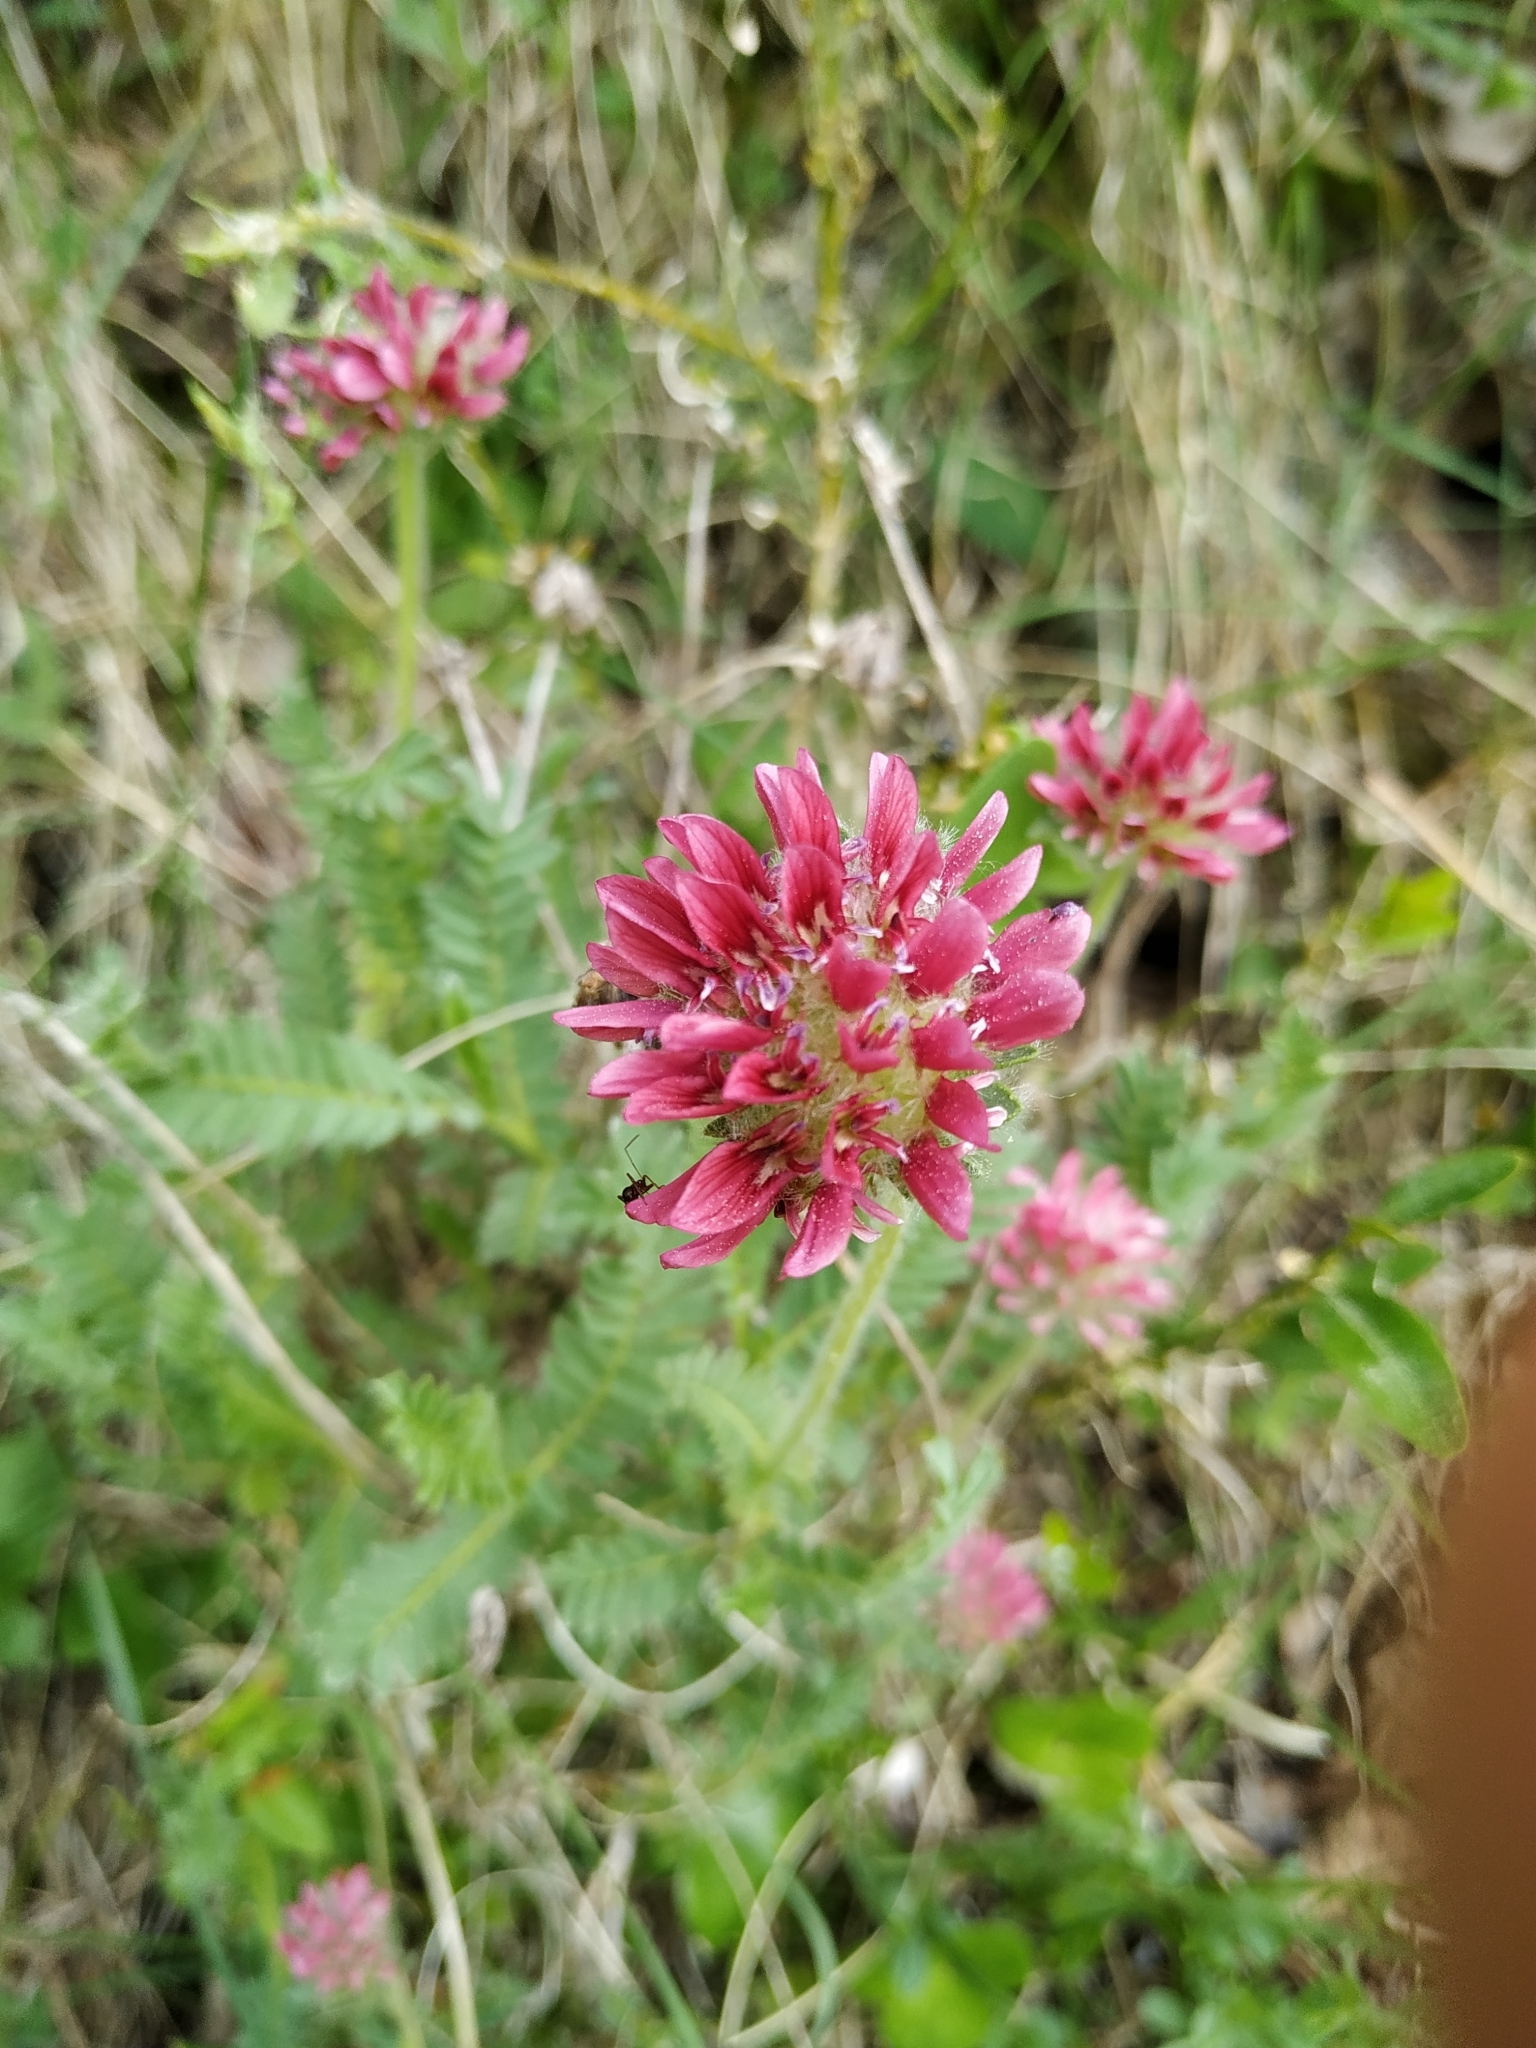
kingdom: Plantae
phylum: Tracheophyta
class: Magnoliopsida
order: Fabales
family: Fabaceae
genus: Anthyllis
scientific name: Anthyllis montana
